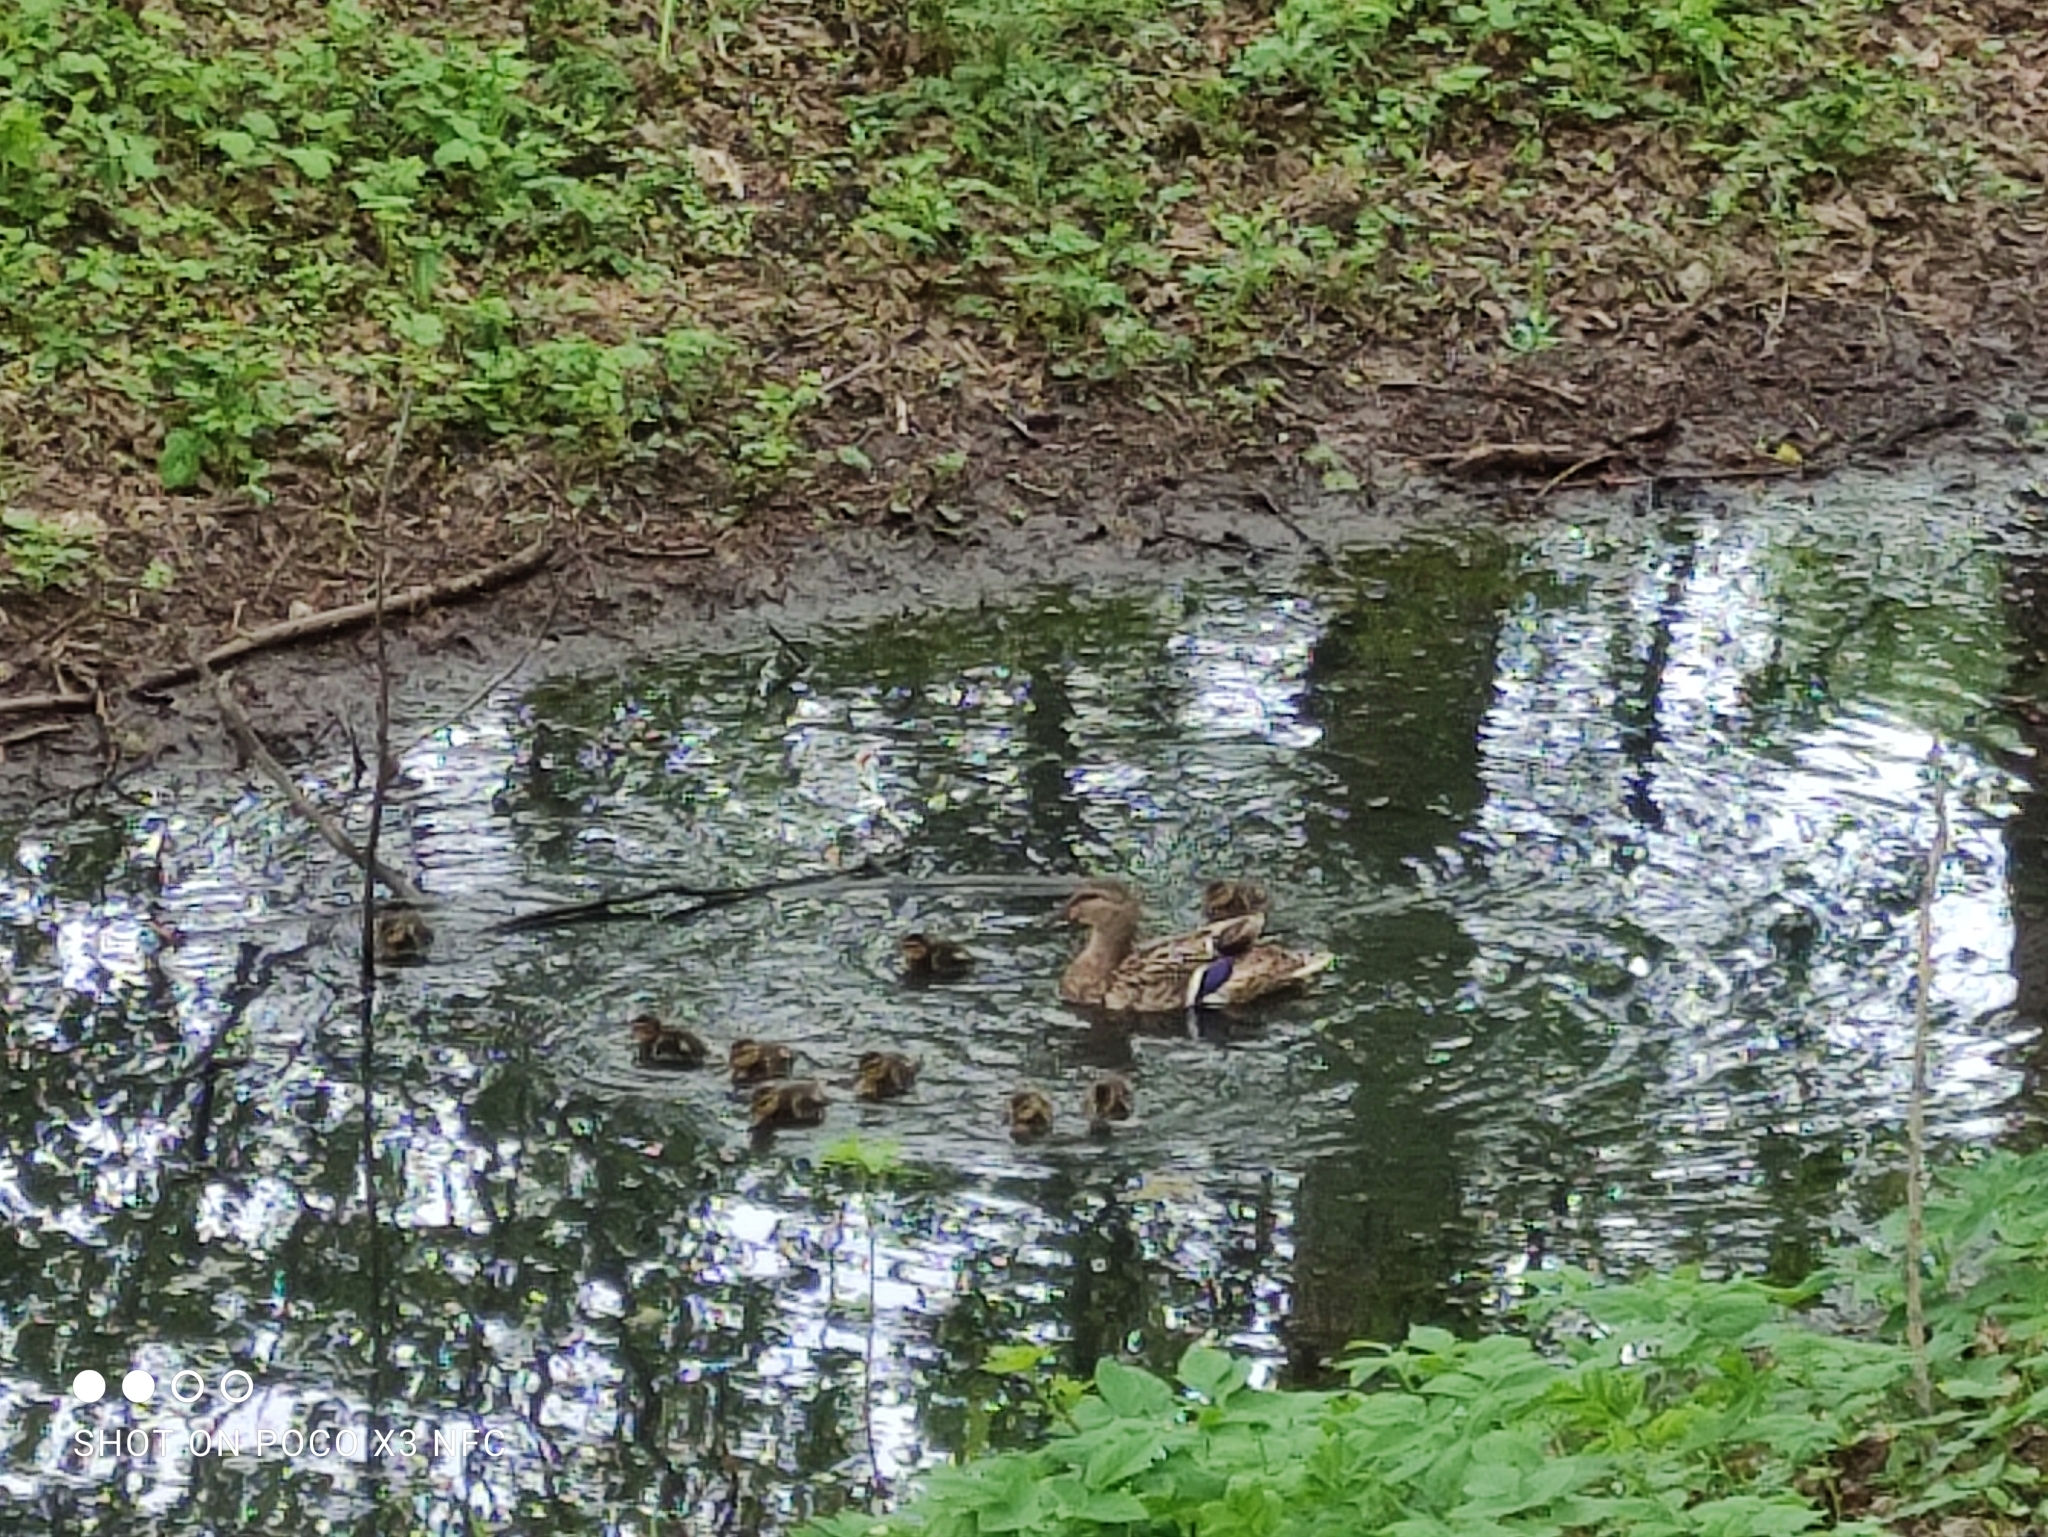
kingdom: Animalia
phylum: Chordata
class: Aves
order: Anseriformes
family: Anatidae
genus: Anas
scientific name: Anas platyrhynchos
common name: Mallard
